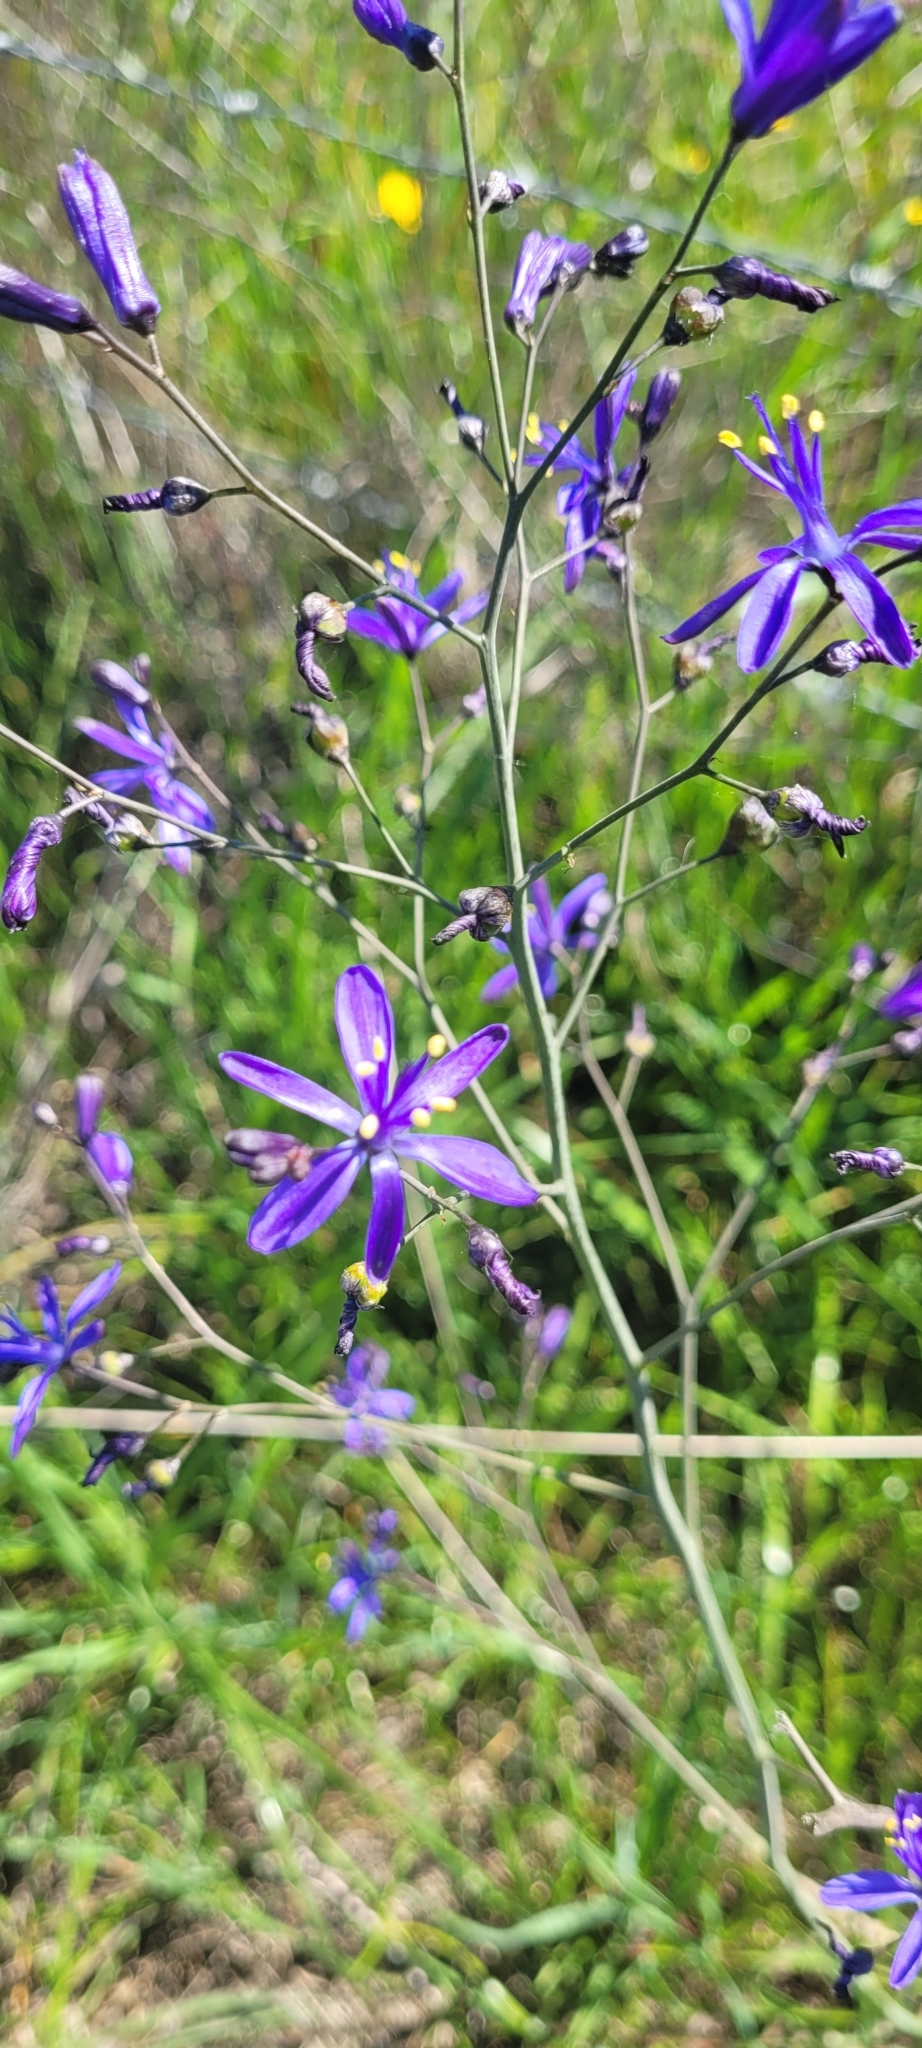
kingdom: Plantae
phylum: Tracheophyta
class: Liliopsida
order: Asparagales
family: Asphodelaceae
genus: Pasithea
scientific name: Pasithea caerulea
